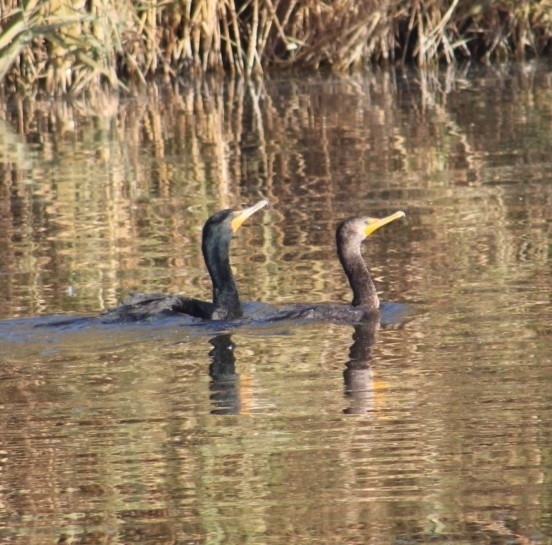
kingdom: Animalia
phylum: Chordata
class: Aves
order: Suliformes
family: Phalacrocoracidae
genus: Phalacrocorax
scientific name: Phalacrocorax auritus
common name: Double-crested cormorant
